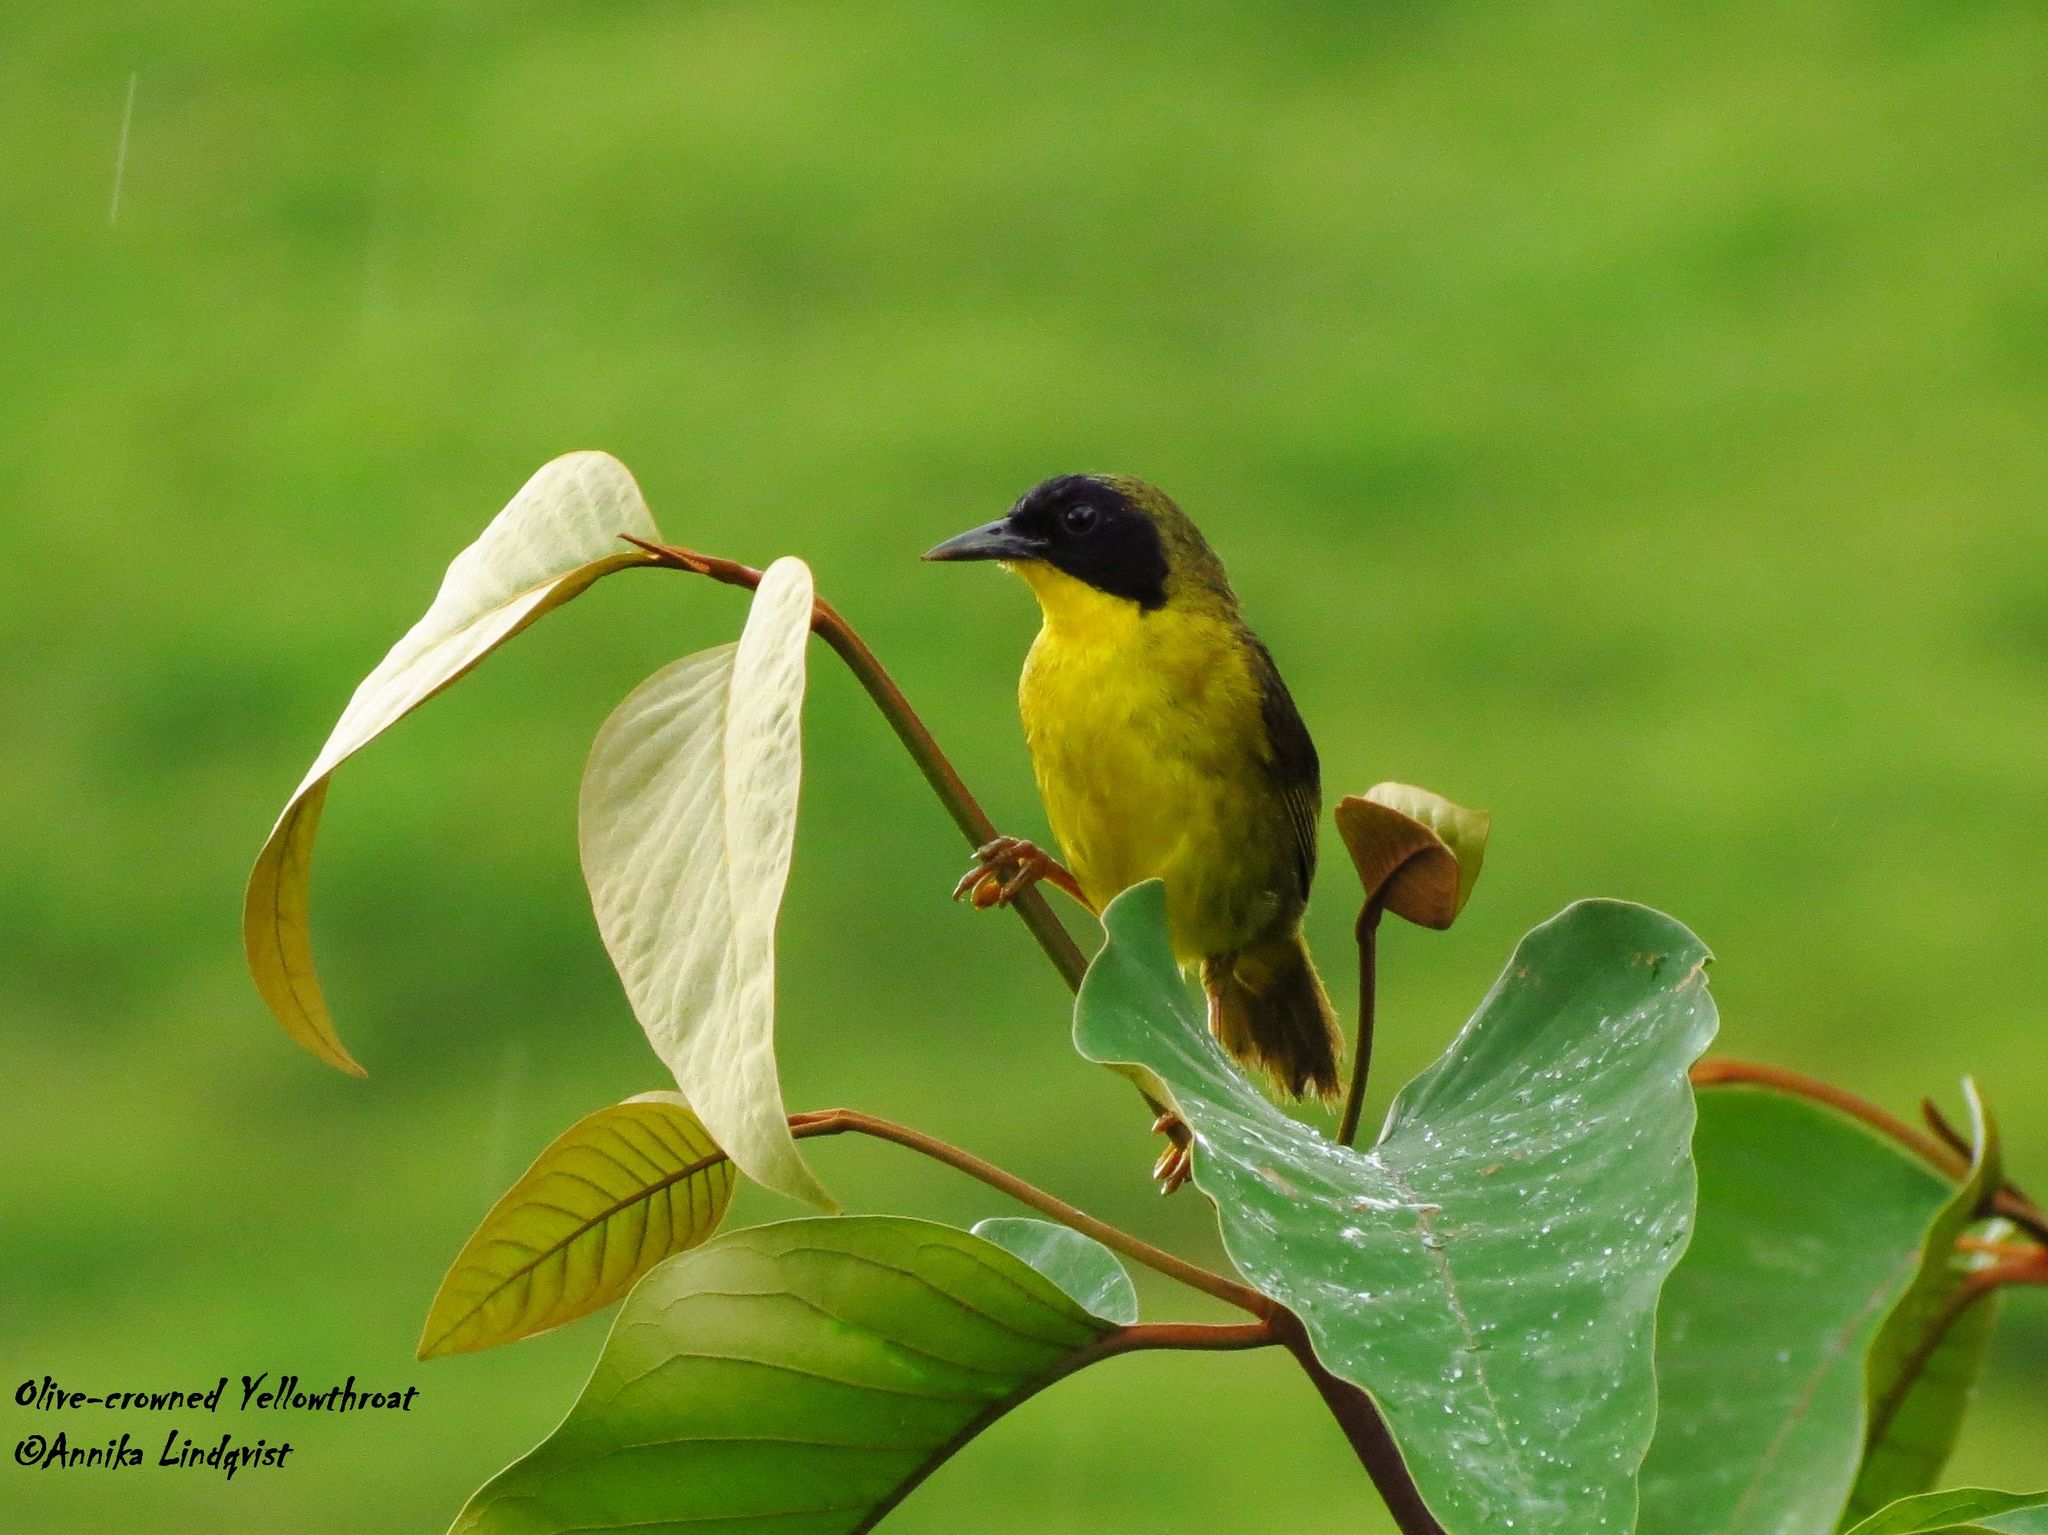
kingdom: Animalia
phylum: Chordata
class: Aves
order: Passeriformes
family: Parulidae
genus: Geothlypis
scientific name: Geothlypis semiflava
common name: Olive-crowned yellowthroat
